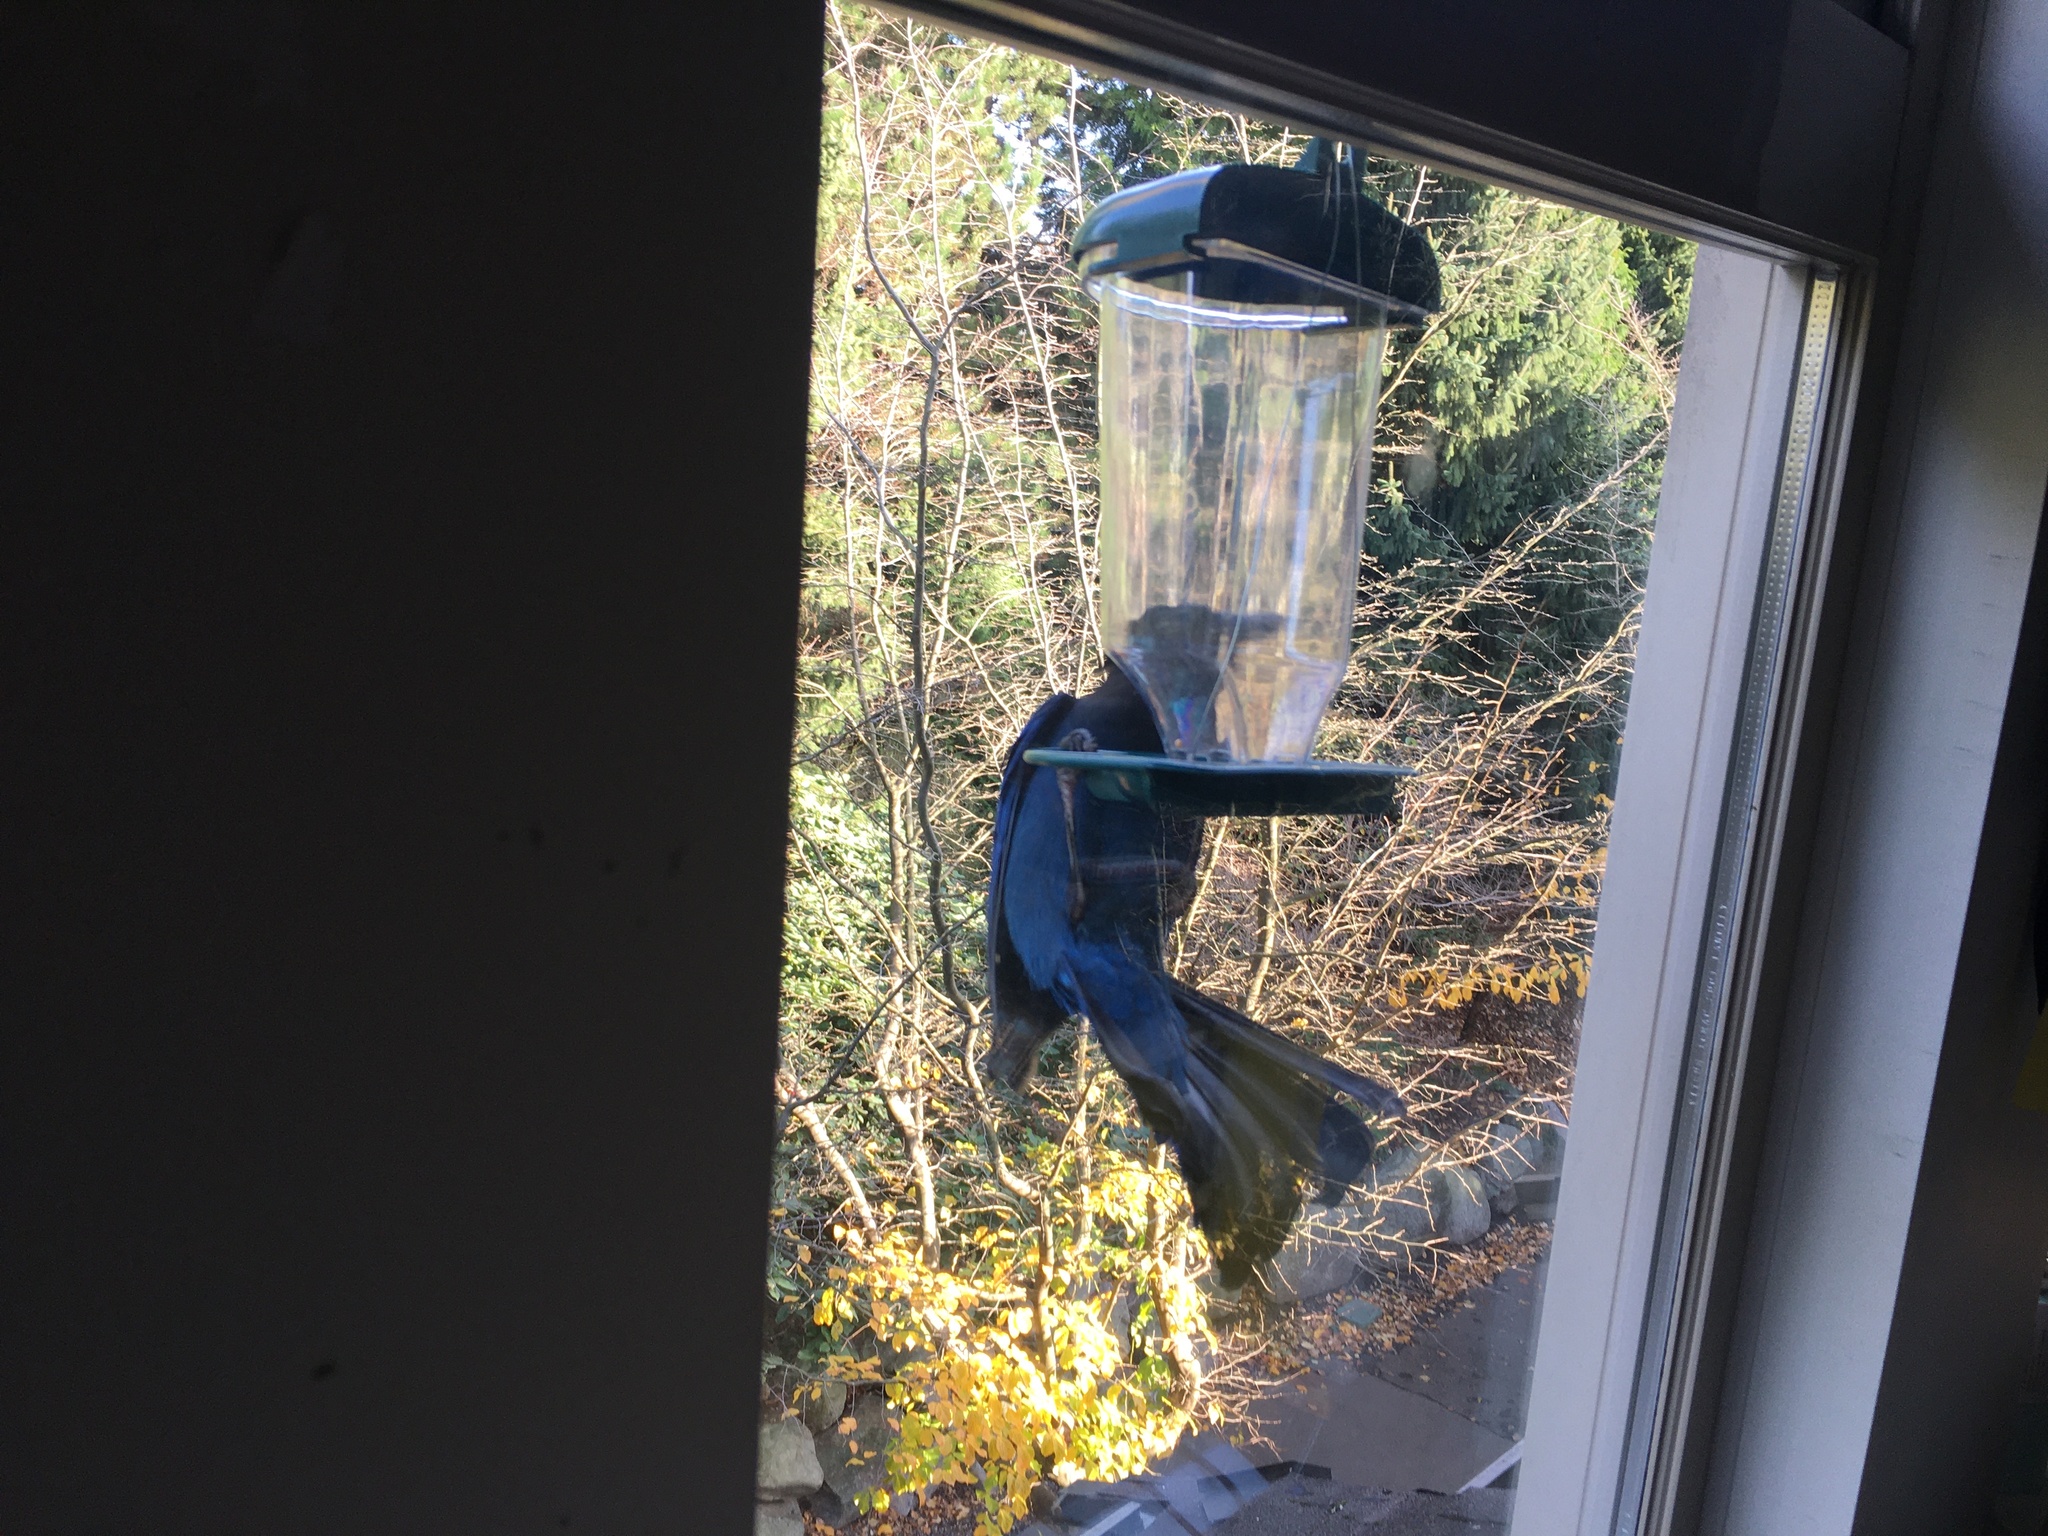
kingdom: Animalia
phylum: Chordata
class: Aves
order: Passeriformes
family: Corvidae
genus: Cyanocitta
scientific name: Cyanocitta stelleri
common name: Steller's jay
